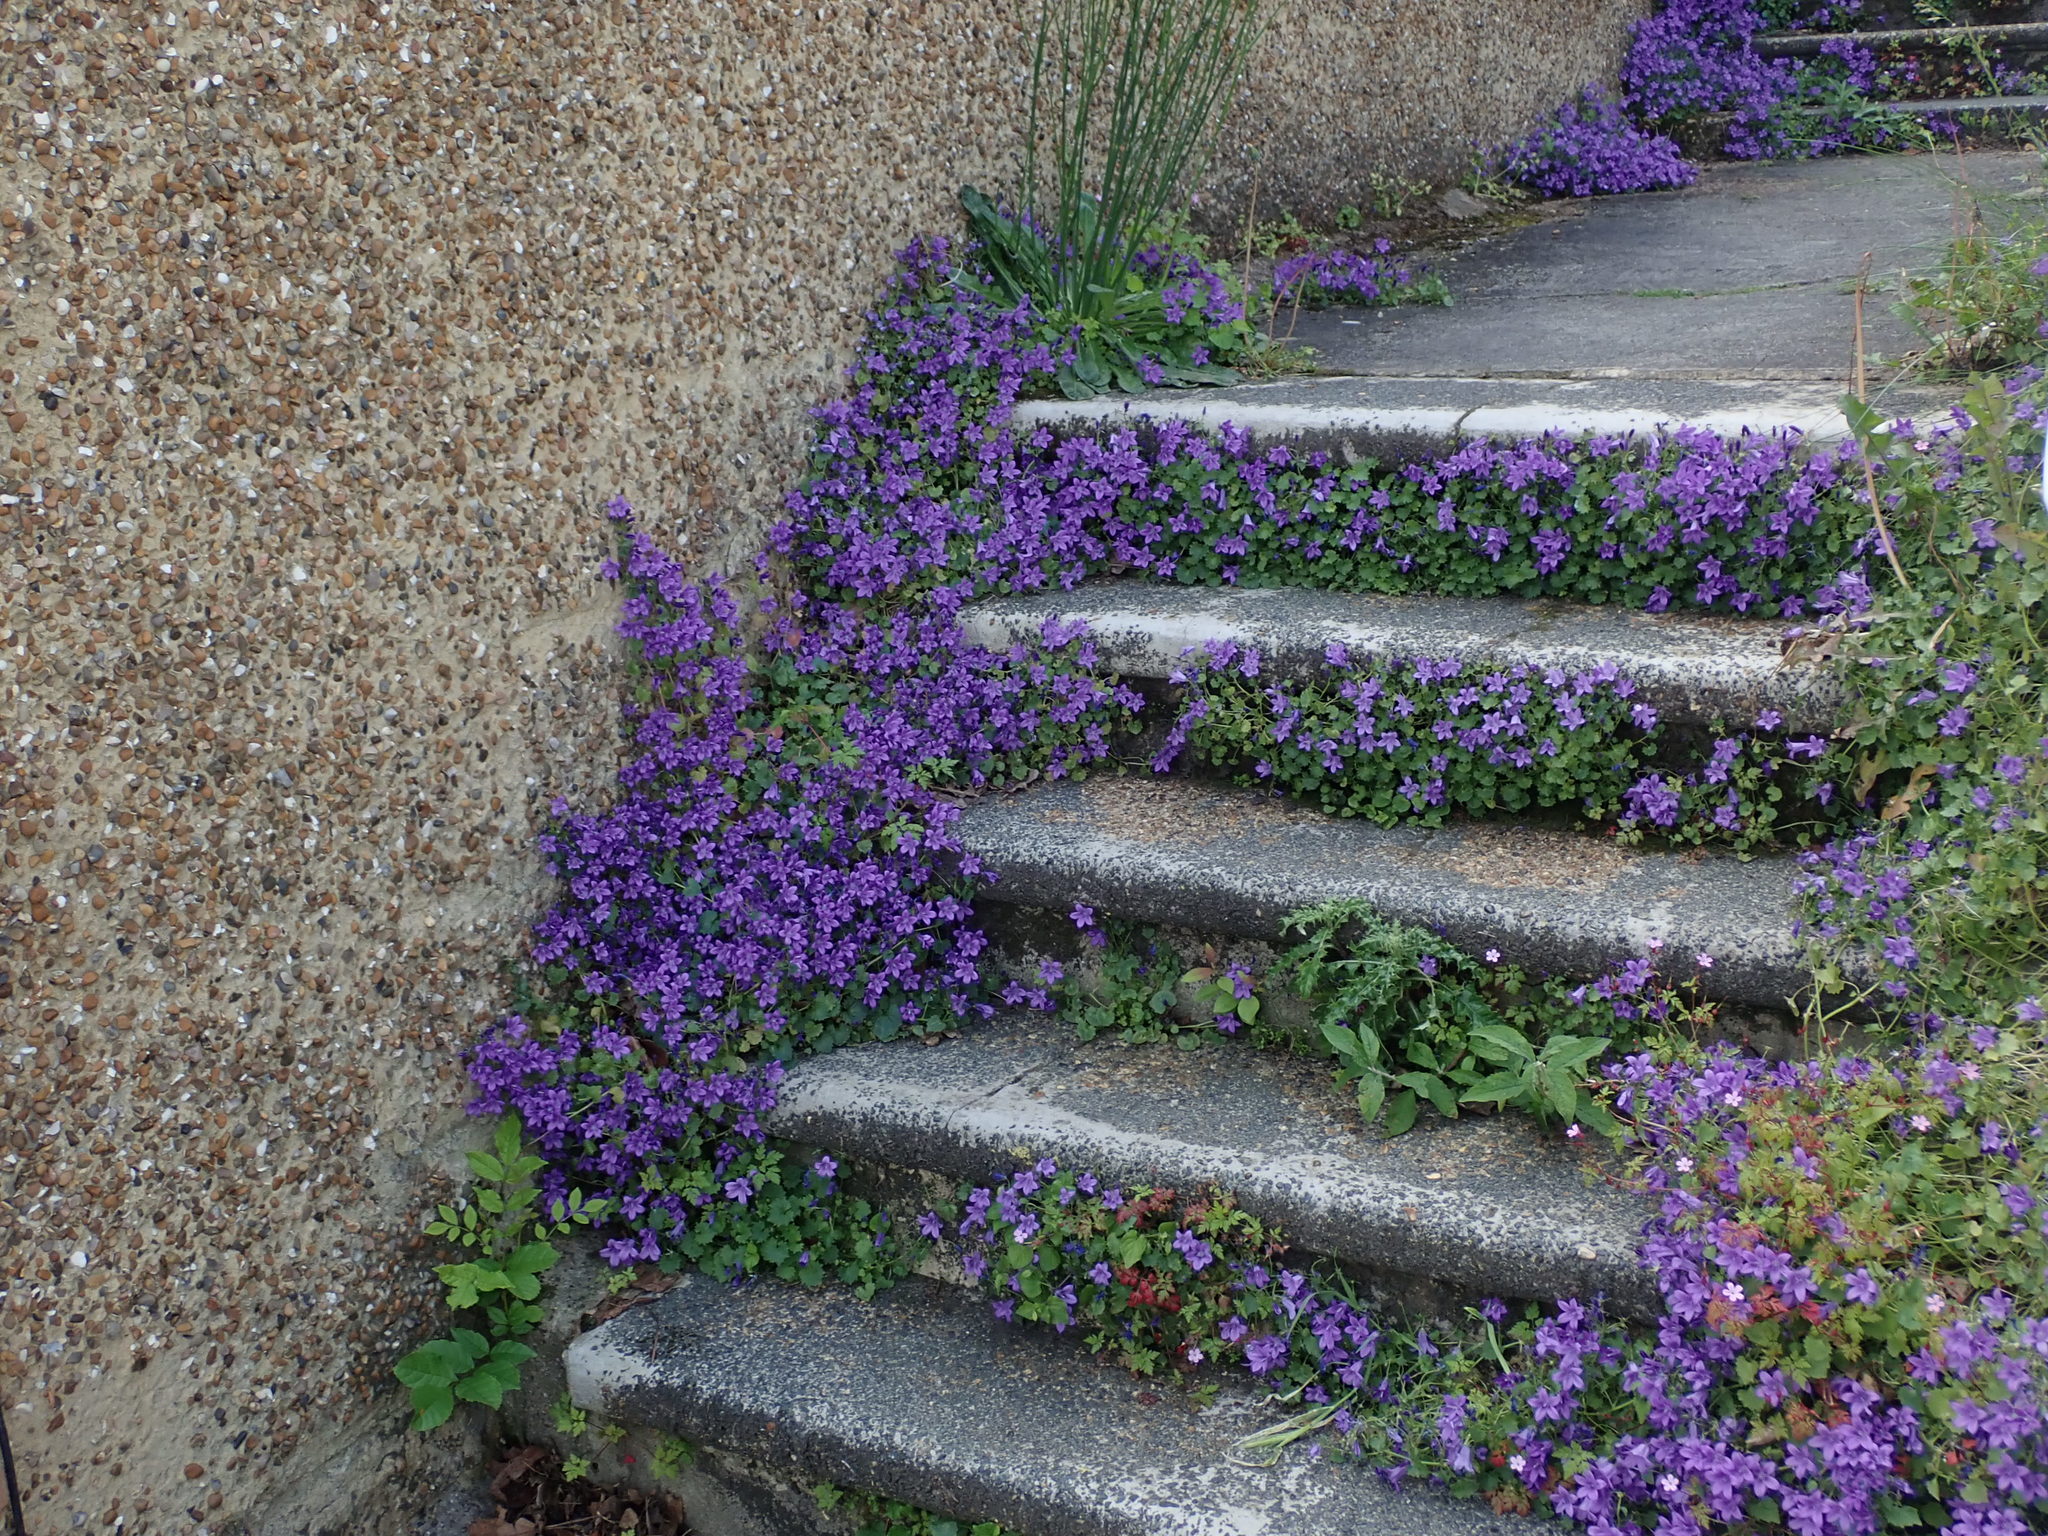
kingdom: Plantae
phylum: Tracheophyta
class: Magnoliopsida
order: Asterales
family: Campanulaceae
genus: Campanula
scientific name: Campanula portenschlagiana
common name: Adria bellflower
